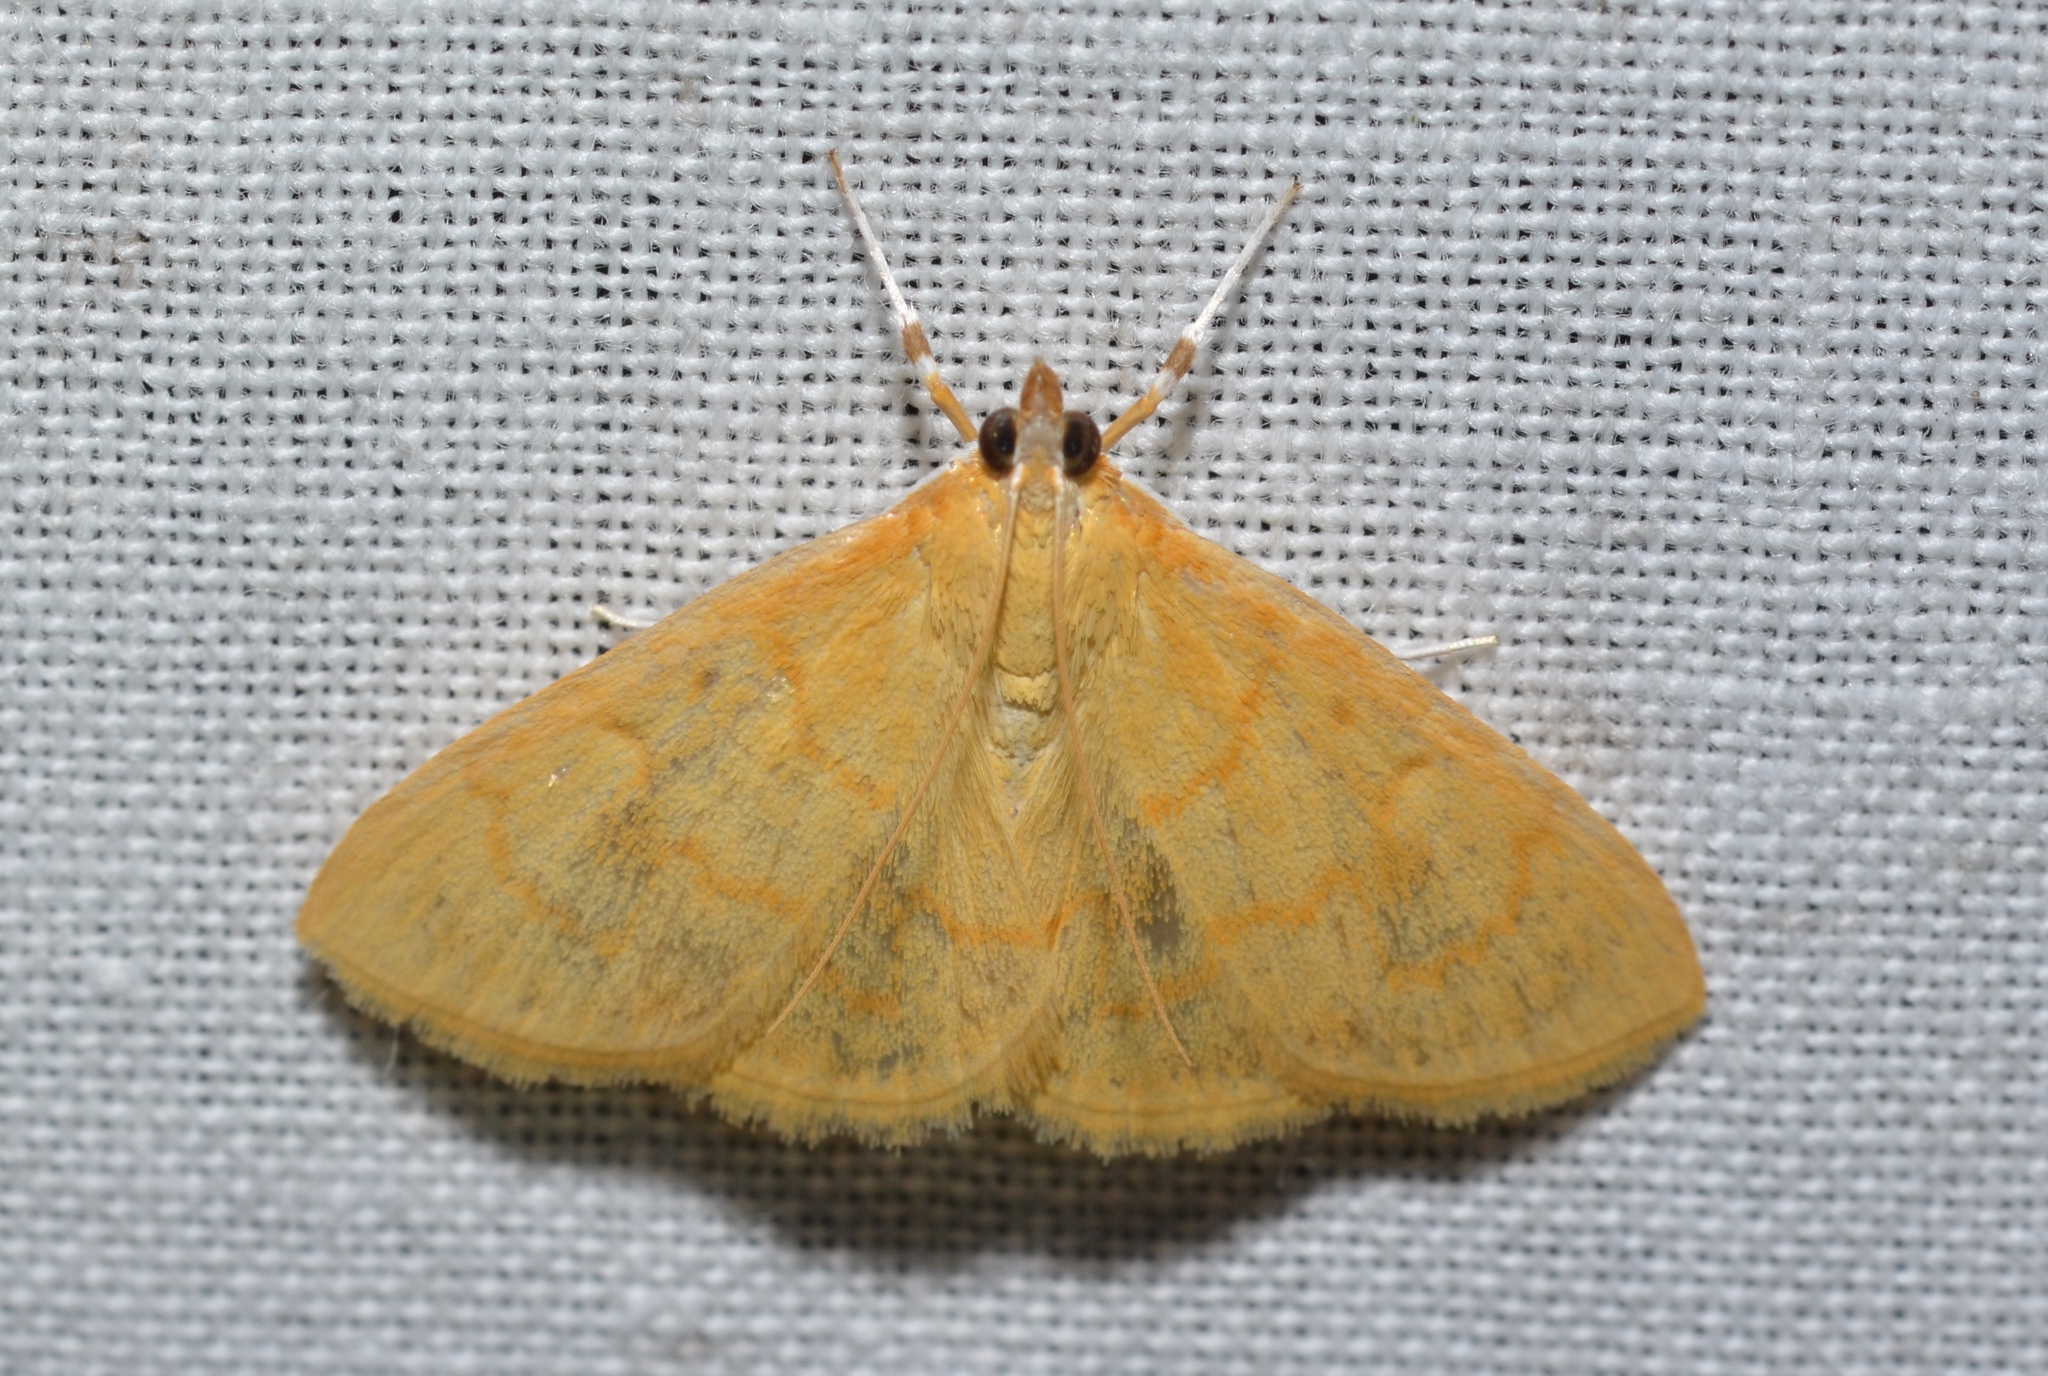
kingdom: Animalia
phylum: Arthropoda
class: Insecta
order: Lepidoptera
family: Crambidae
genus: Mimudea
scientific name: Mimudea puralis
